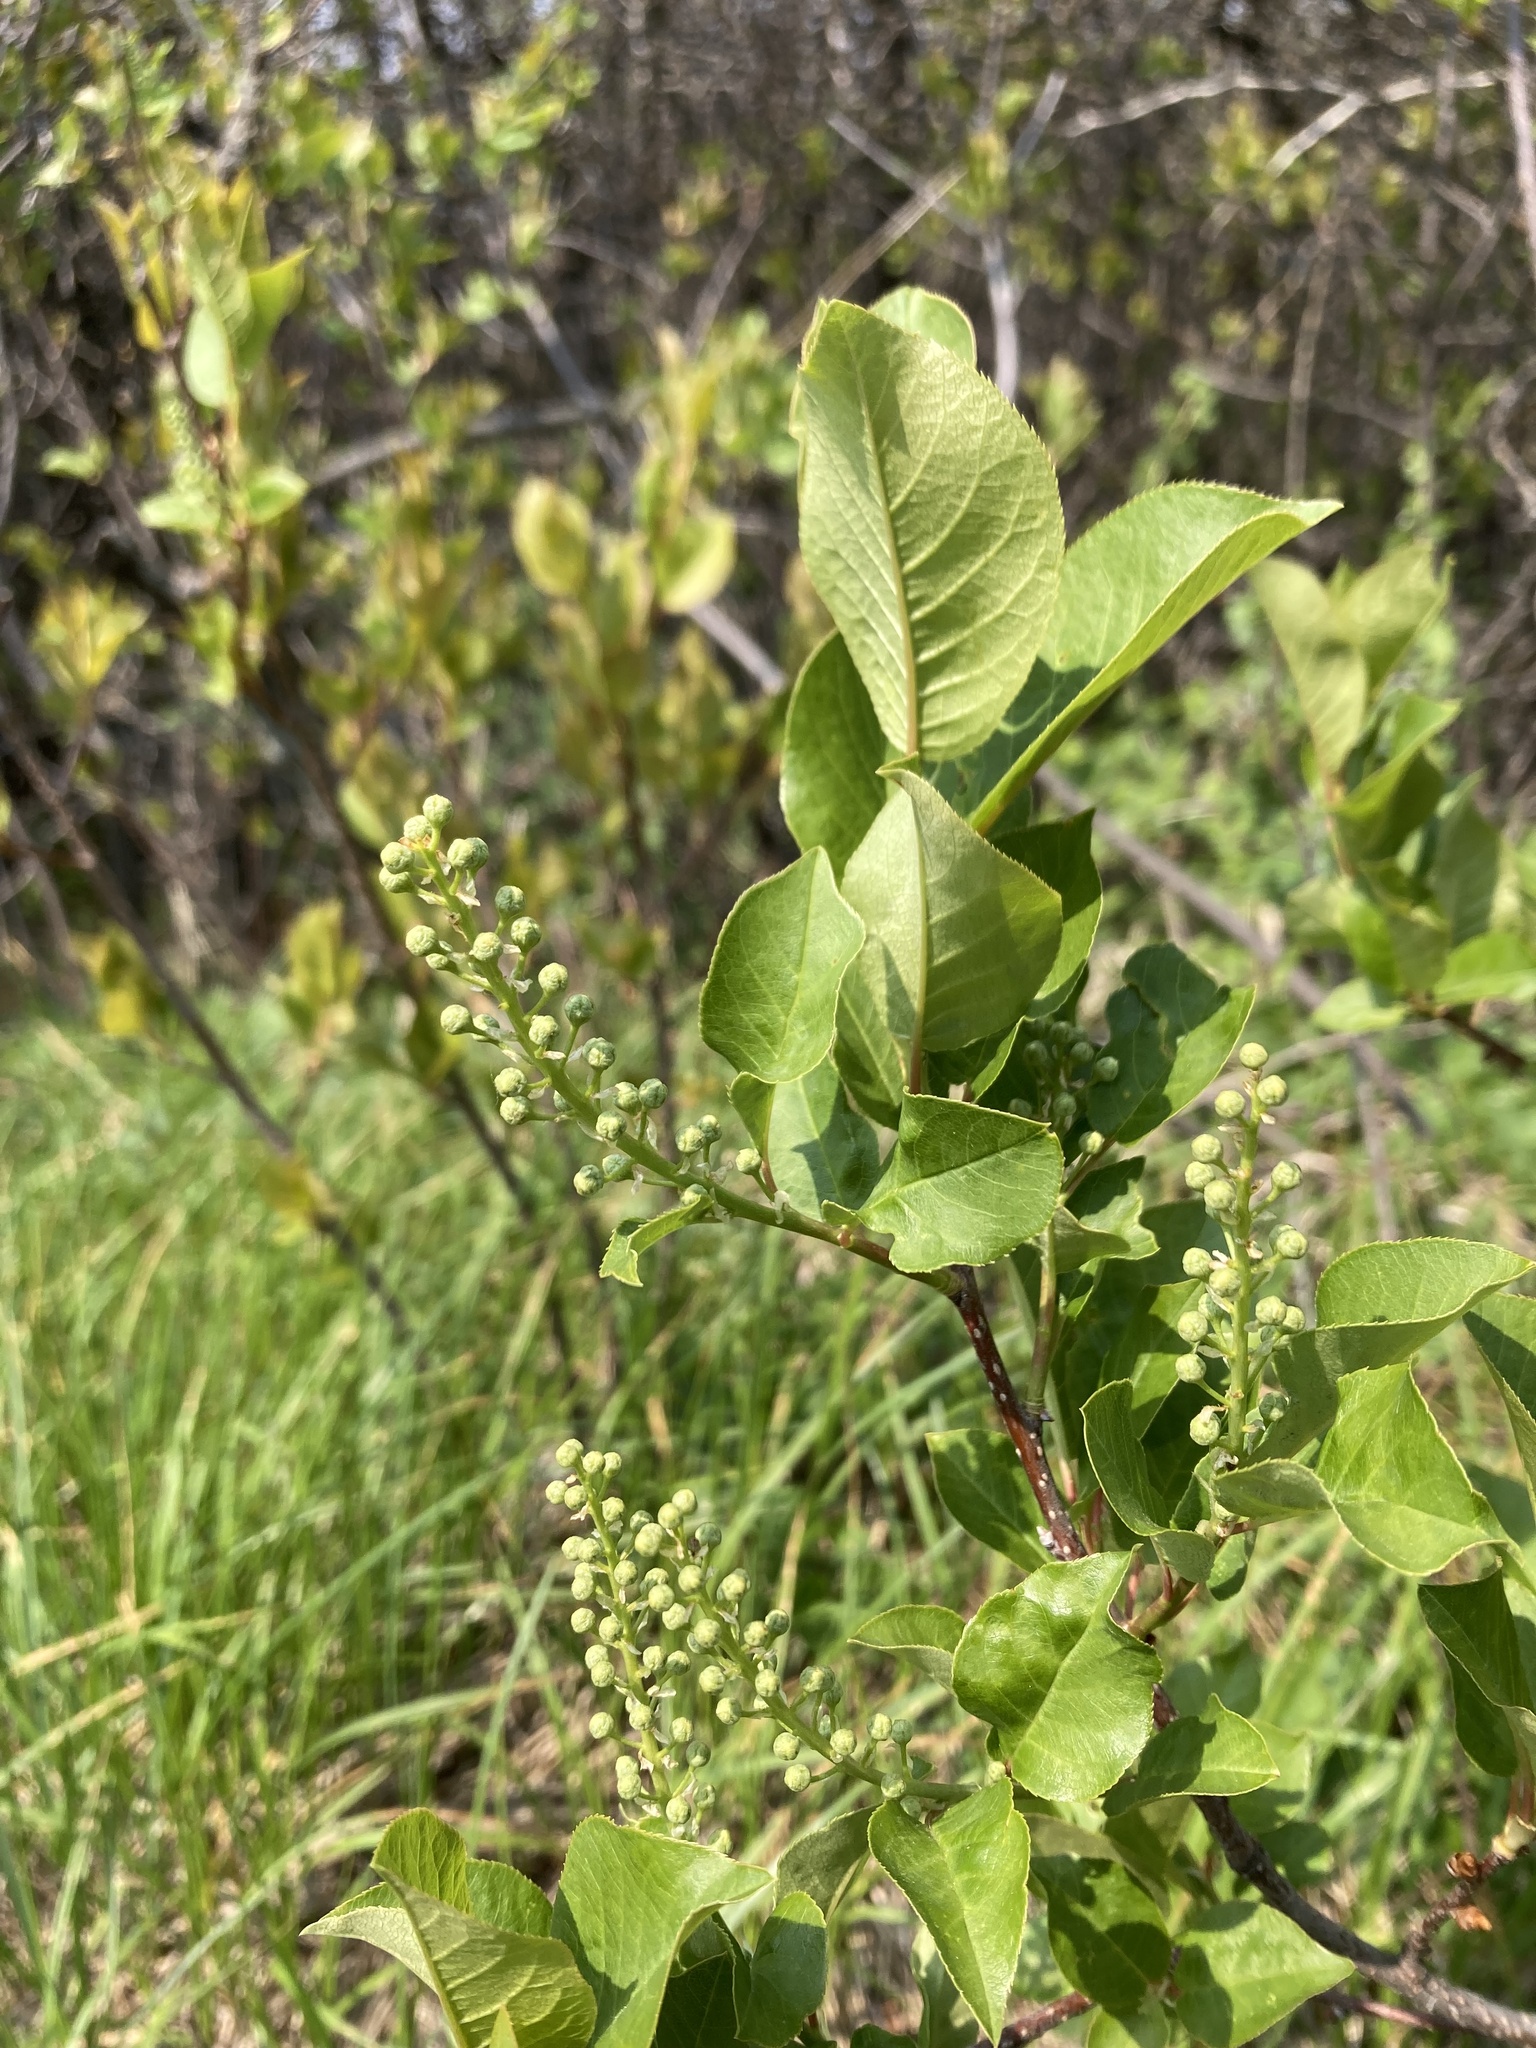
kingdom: Plantae
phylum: Tracheophyta
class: Magnoliopsida
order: Rosales
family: Rosaceae
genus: Prunus
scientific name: Prunus virginiana
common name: Chokecherry
